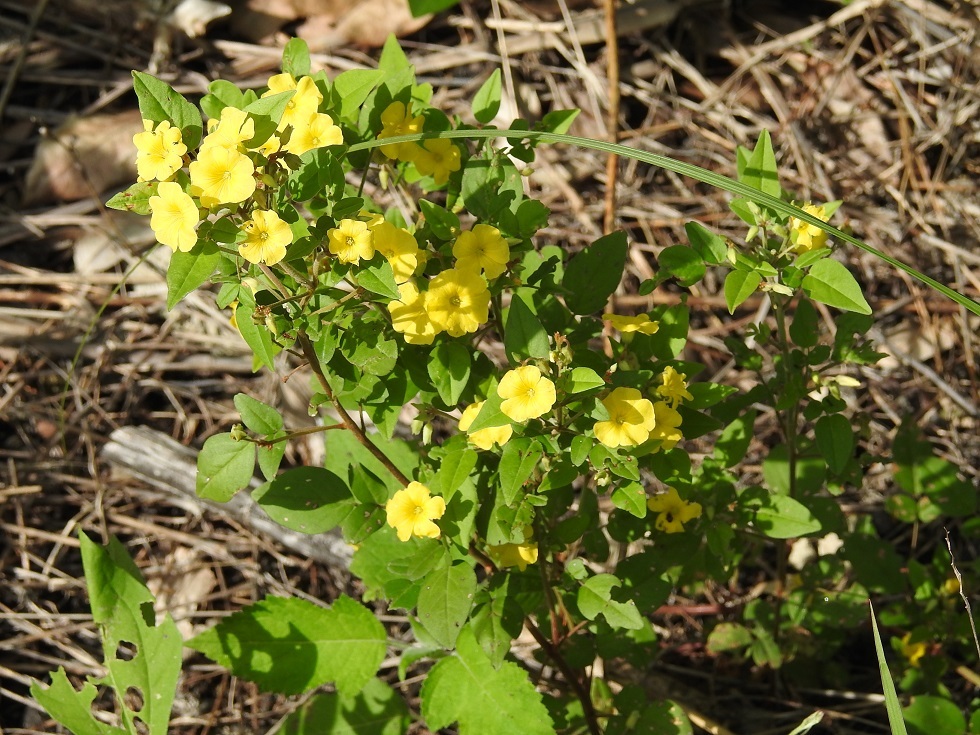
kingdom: Plantae
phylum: Tracheophyta
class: Magnoliopsida
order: Oxalidales
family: Oxalidaceae
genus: Oxalis
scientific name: Oxalis frutescens
